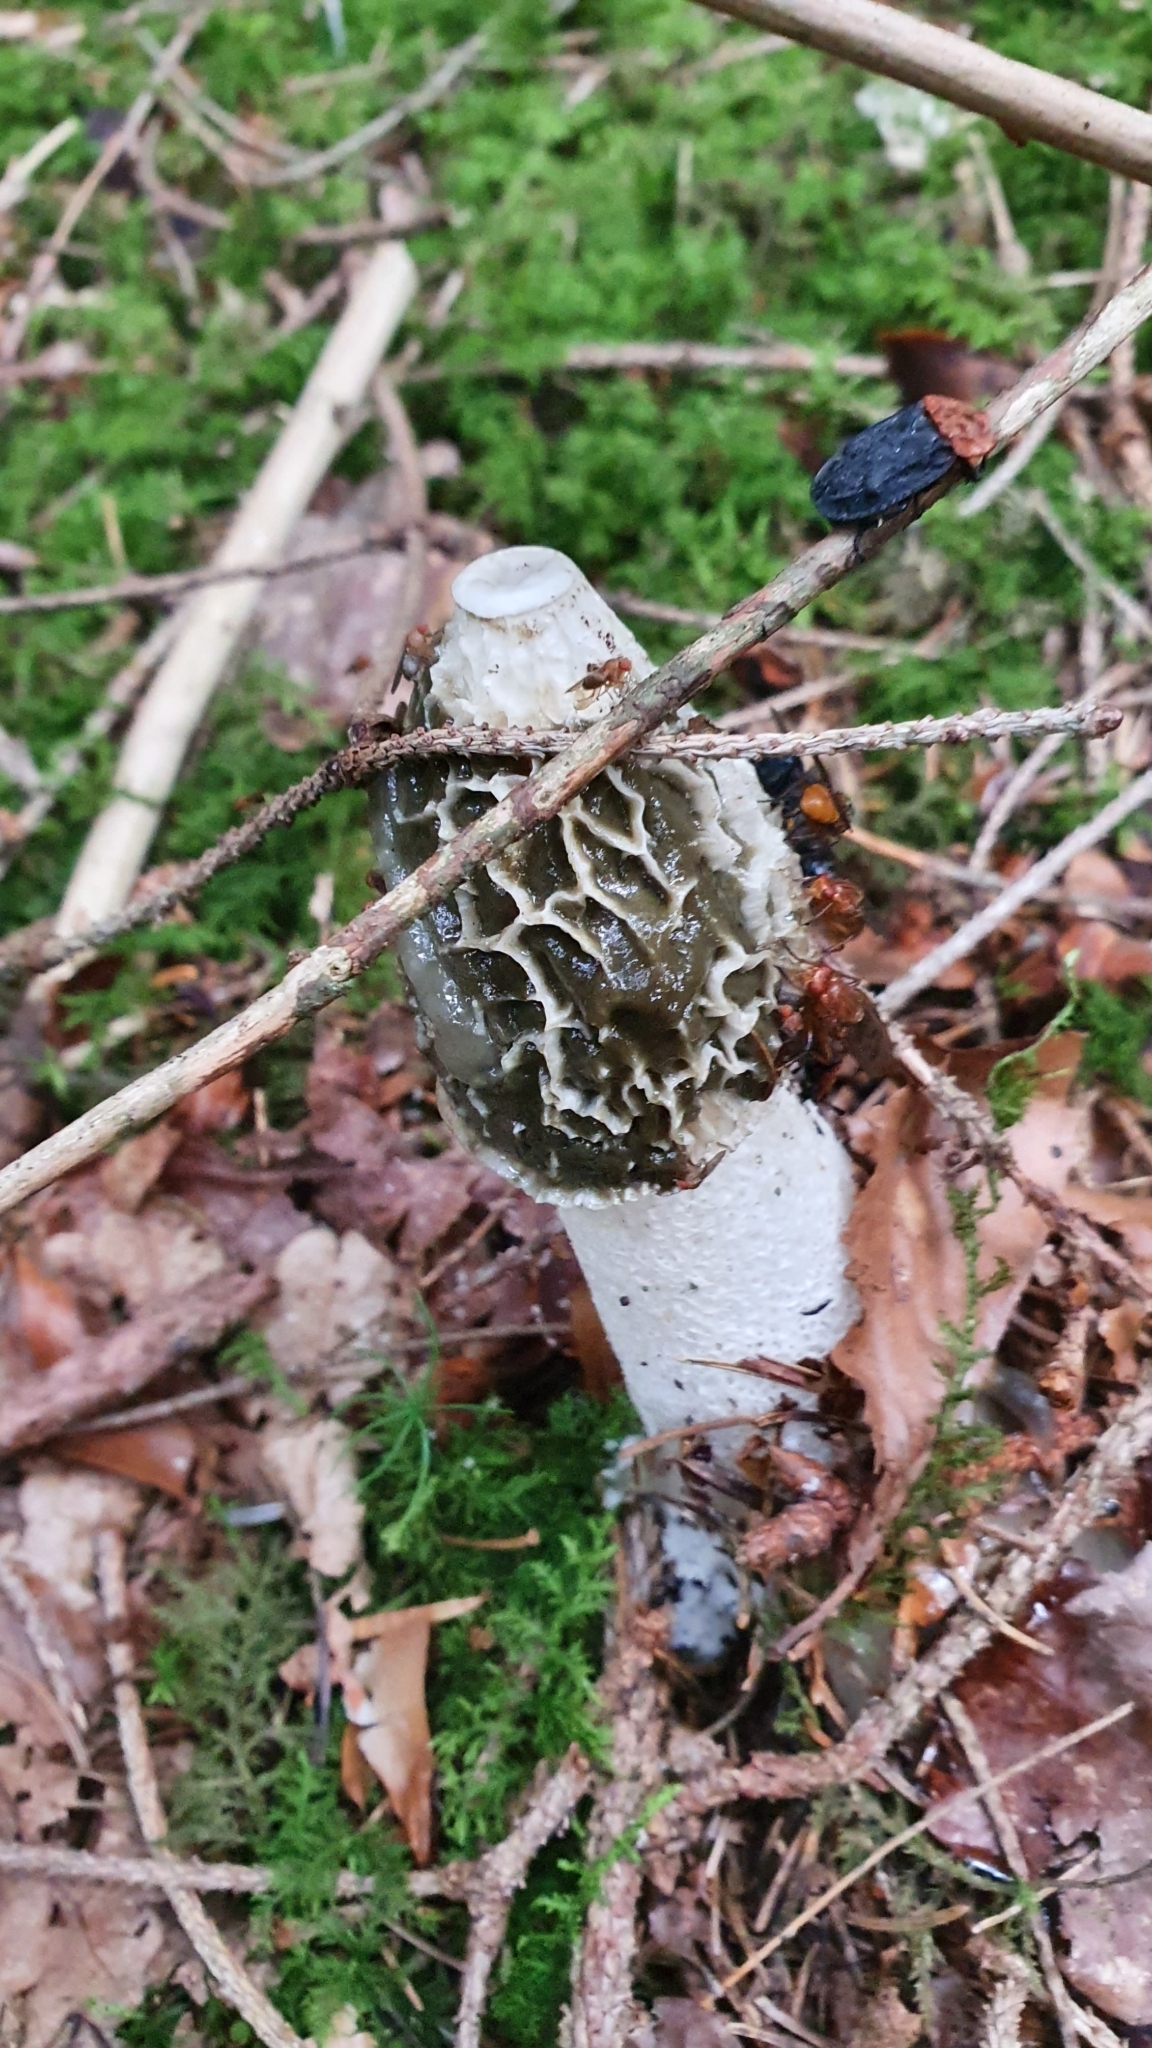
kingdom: Fungi
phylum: Basidiomycota
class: Agaricomycetes
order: Phallales
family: Phallaceae
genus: Phallus
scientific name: Phallus impudicus
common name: Common stinkhorn
